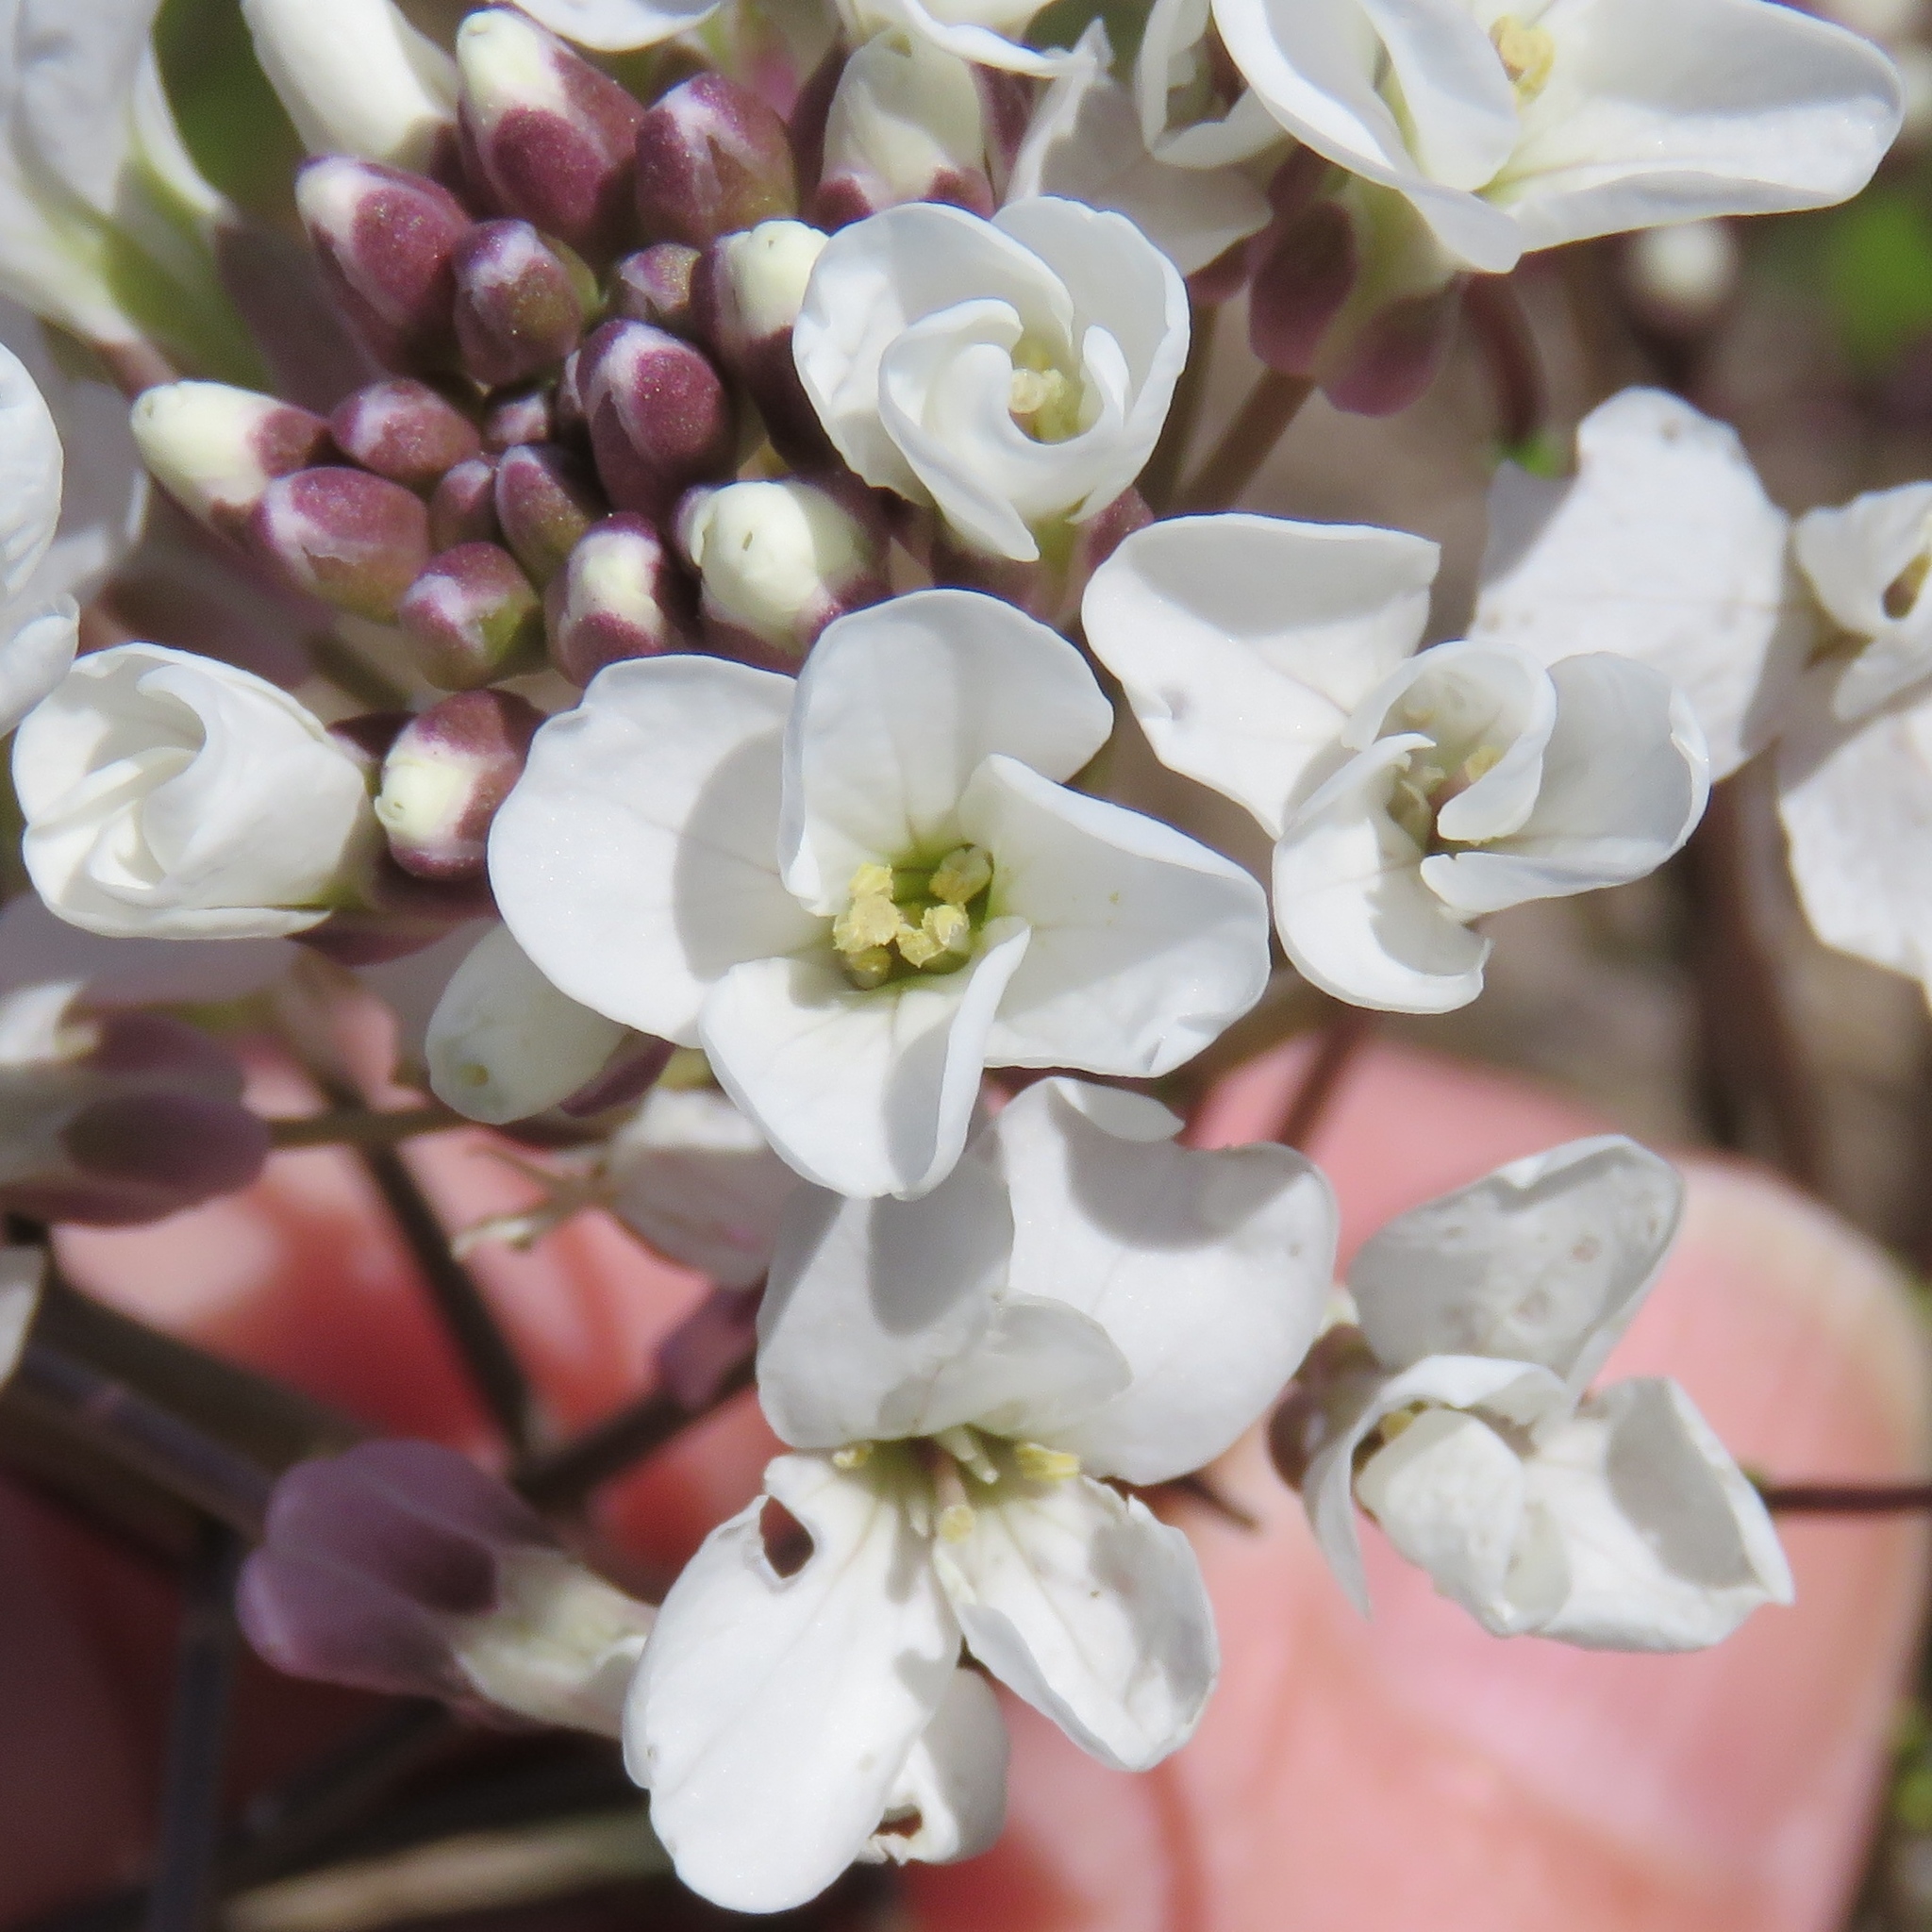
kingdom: Plantae
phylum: Tracheophyta
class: Magnoliopsida
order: Brassicales
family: Brassicaceae
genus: Cardamine
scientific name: Cardamine bulbosa
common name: Spring cress
